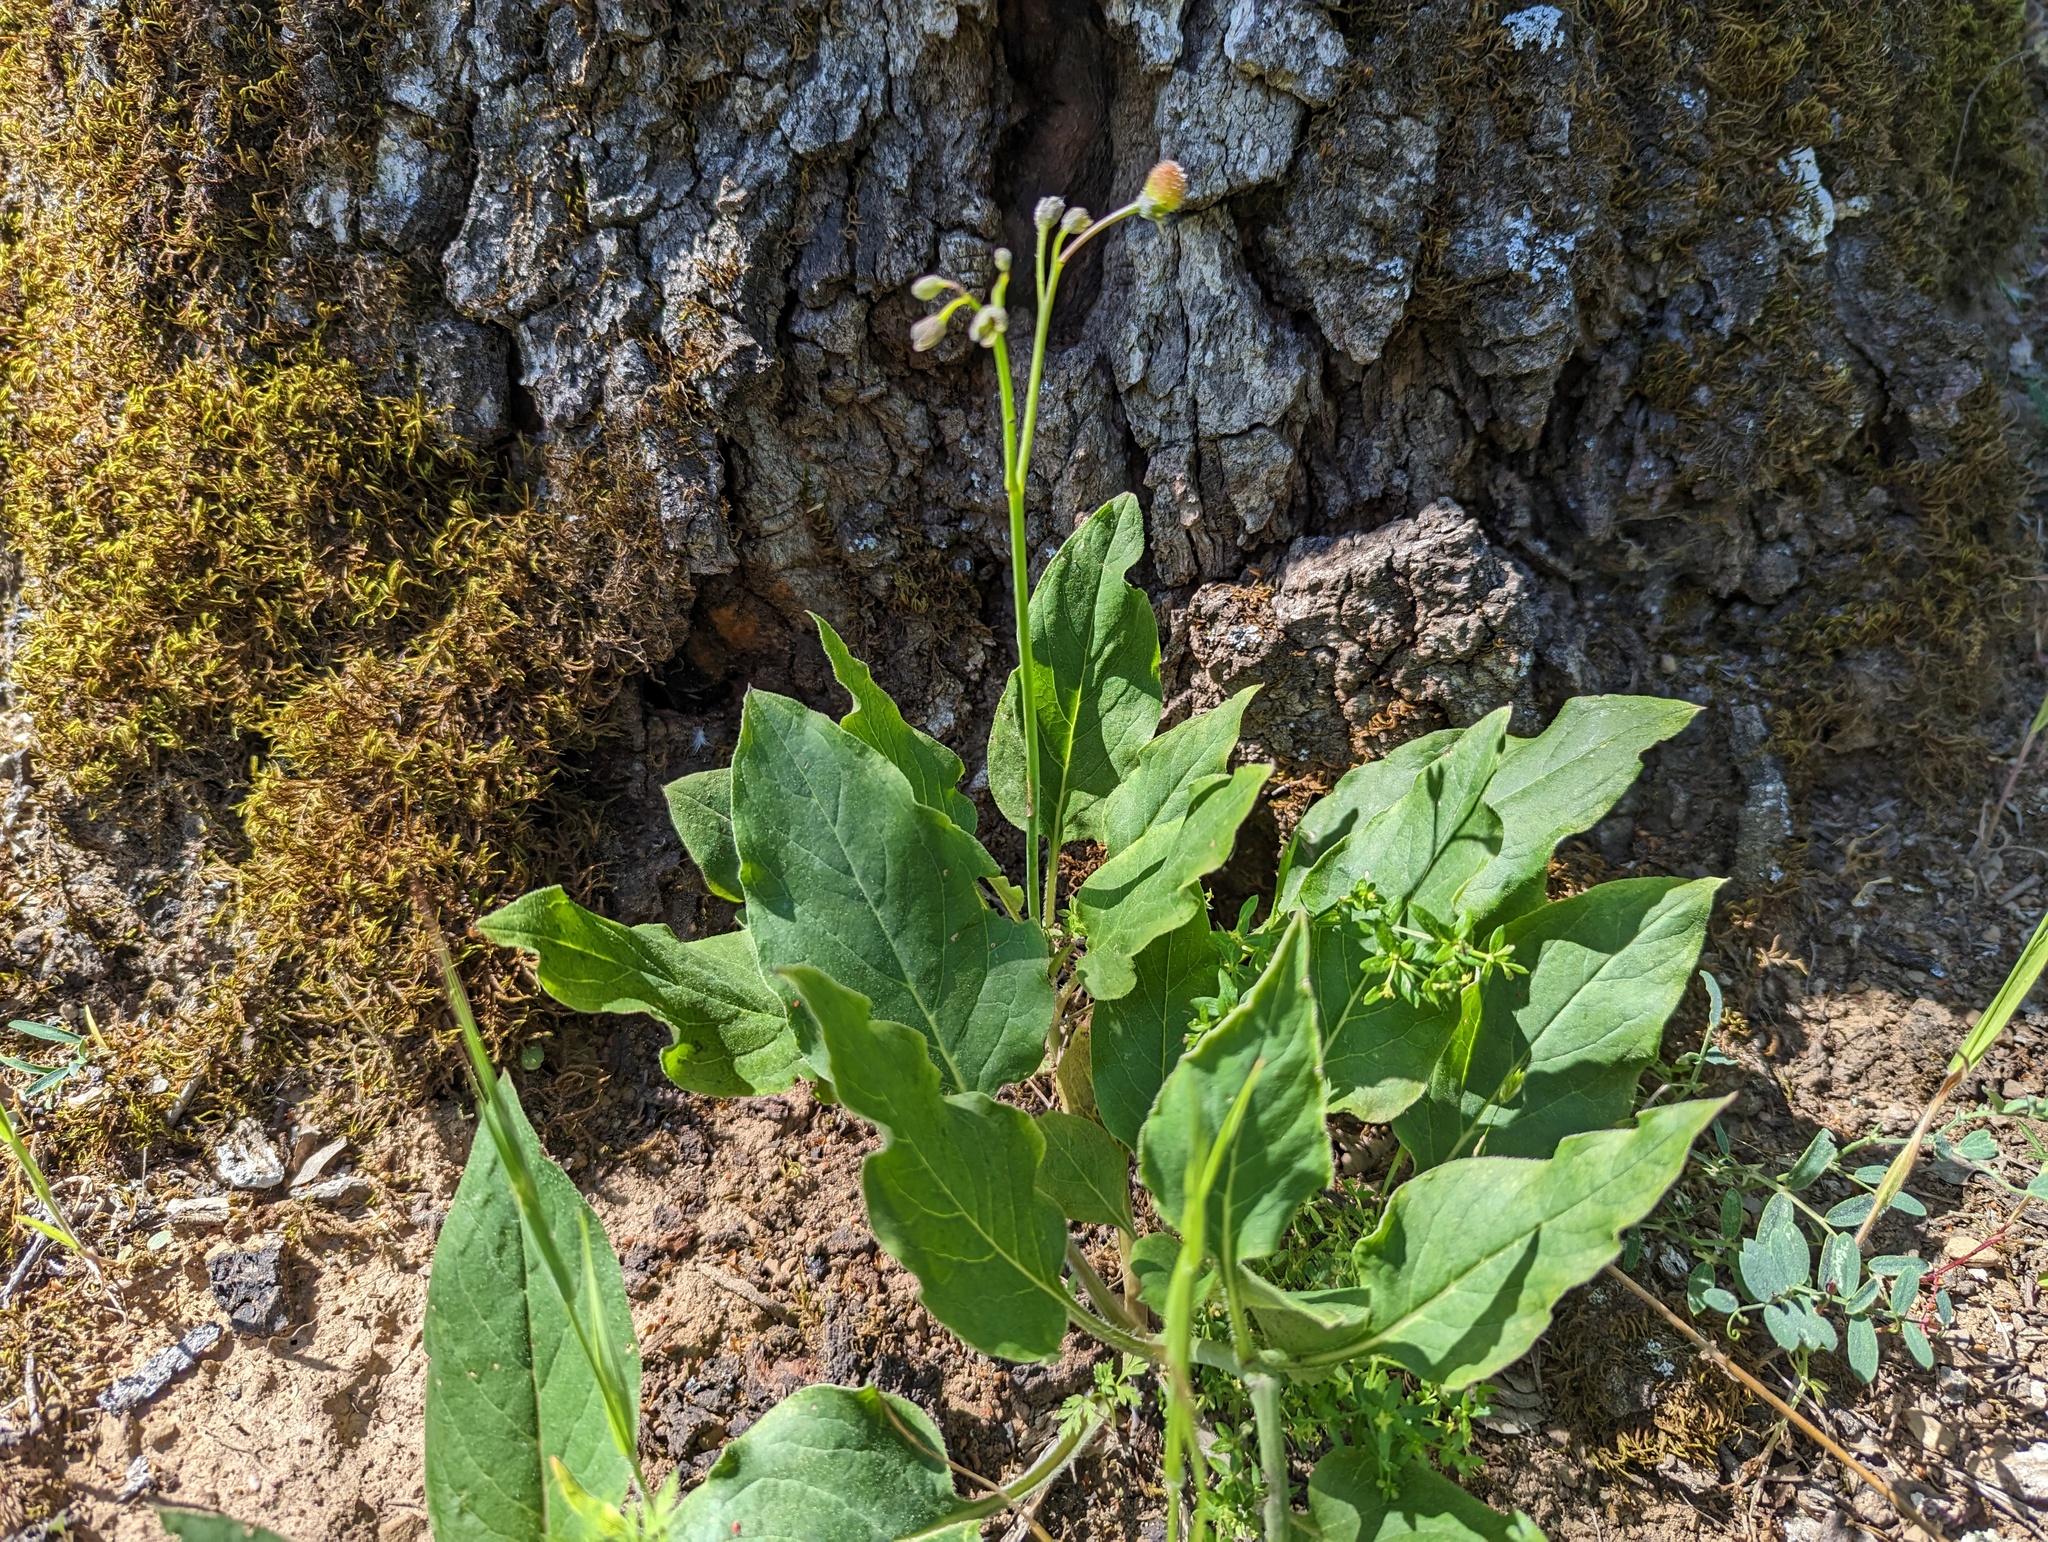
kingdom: Plantae
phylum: Tracheophyta
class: Magnoliopsida
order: Boraginales
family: Boraginaceae
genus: Adelinia
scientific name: Adelinia grande
